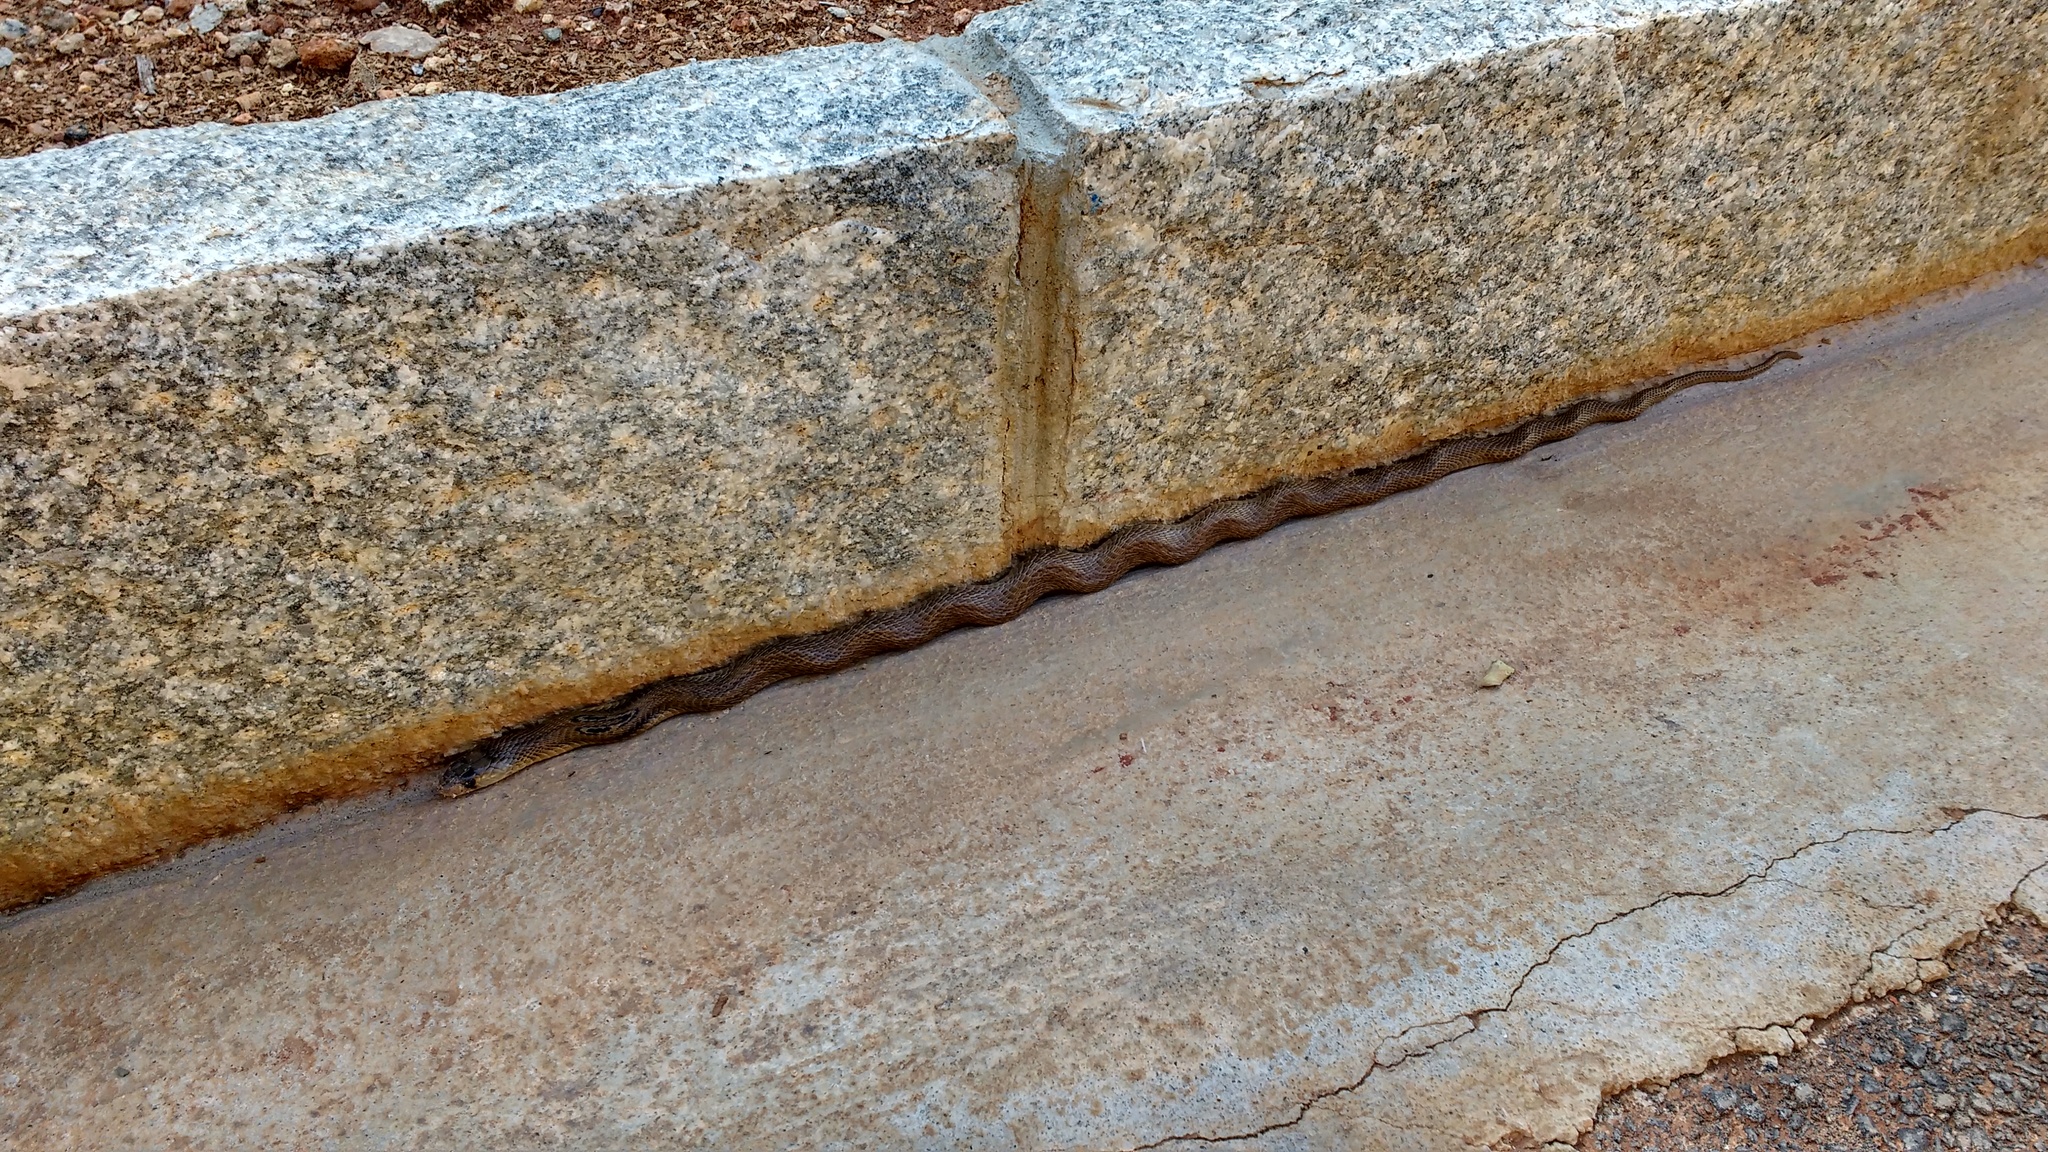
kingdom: Animalia
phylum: Chordata
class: Squamata
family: Elapidae
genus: Naja
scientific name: Naja naja
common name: Indian cobra
